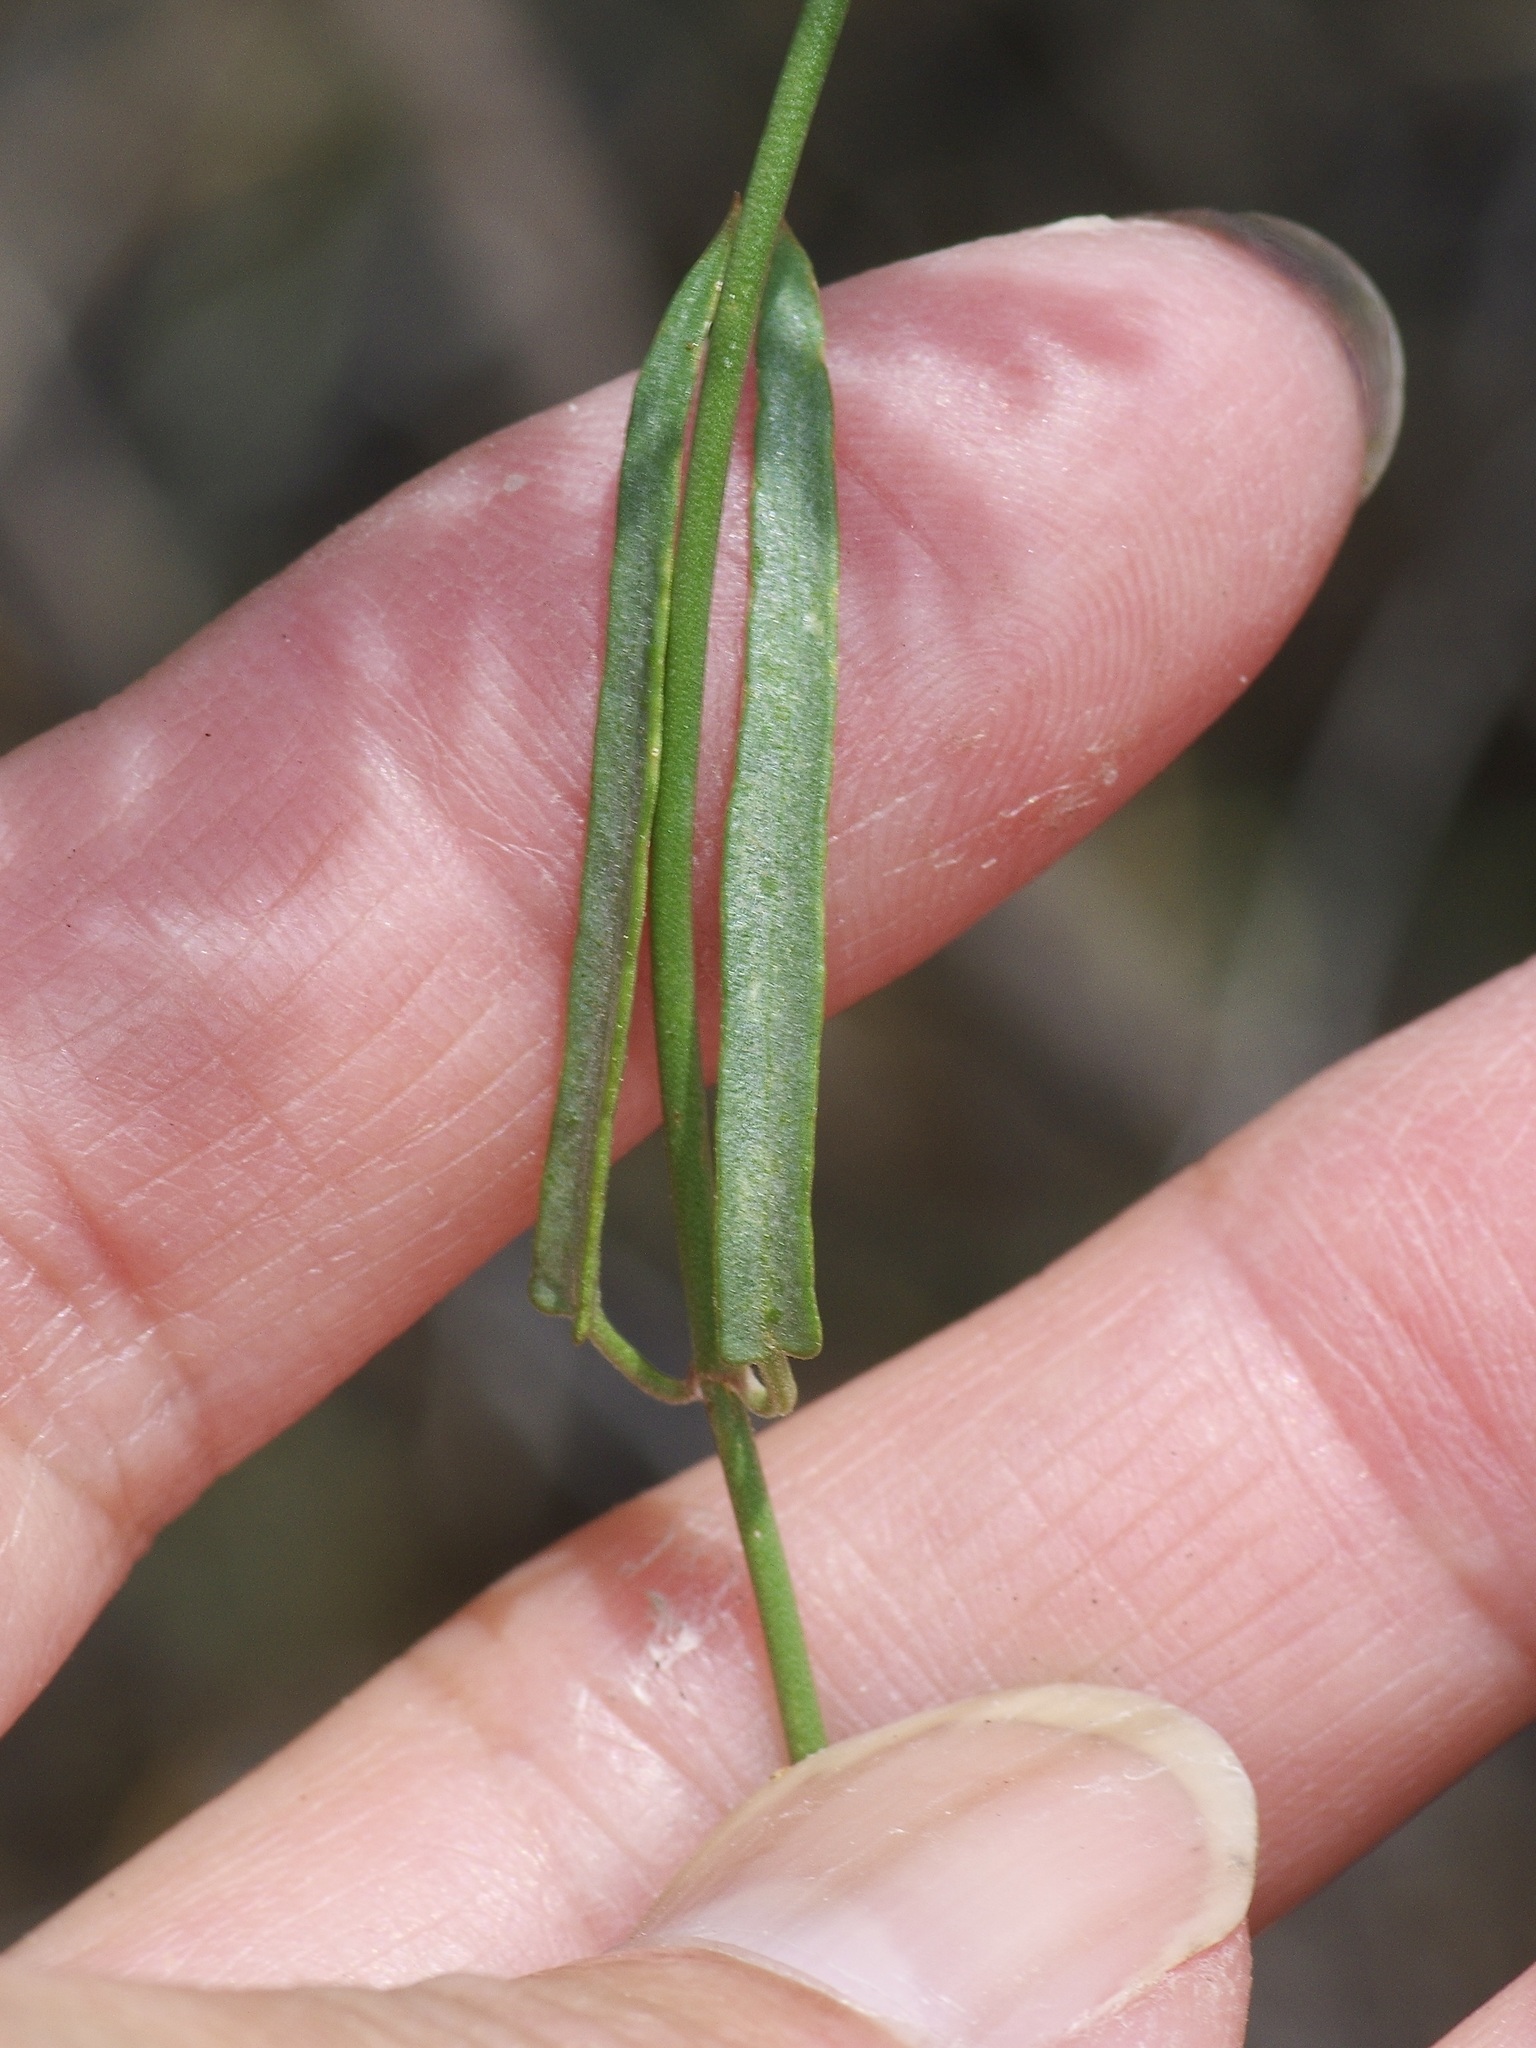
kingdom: Plantae
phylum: Tracheophyta
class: Magnoliopsida
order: Malpighiales
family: Malpighiaceae
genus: Cottsia
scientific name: Cottsia gracilis
